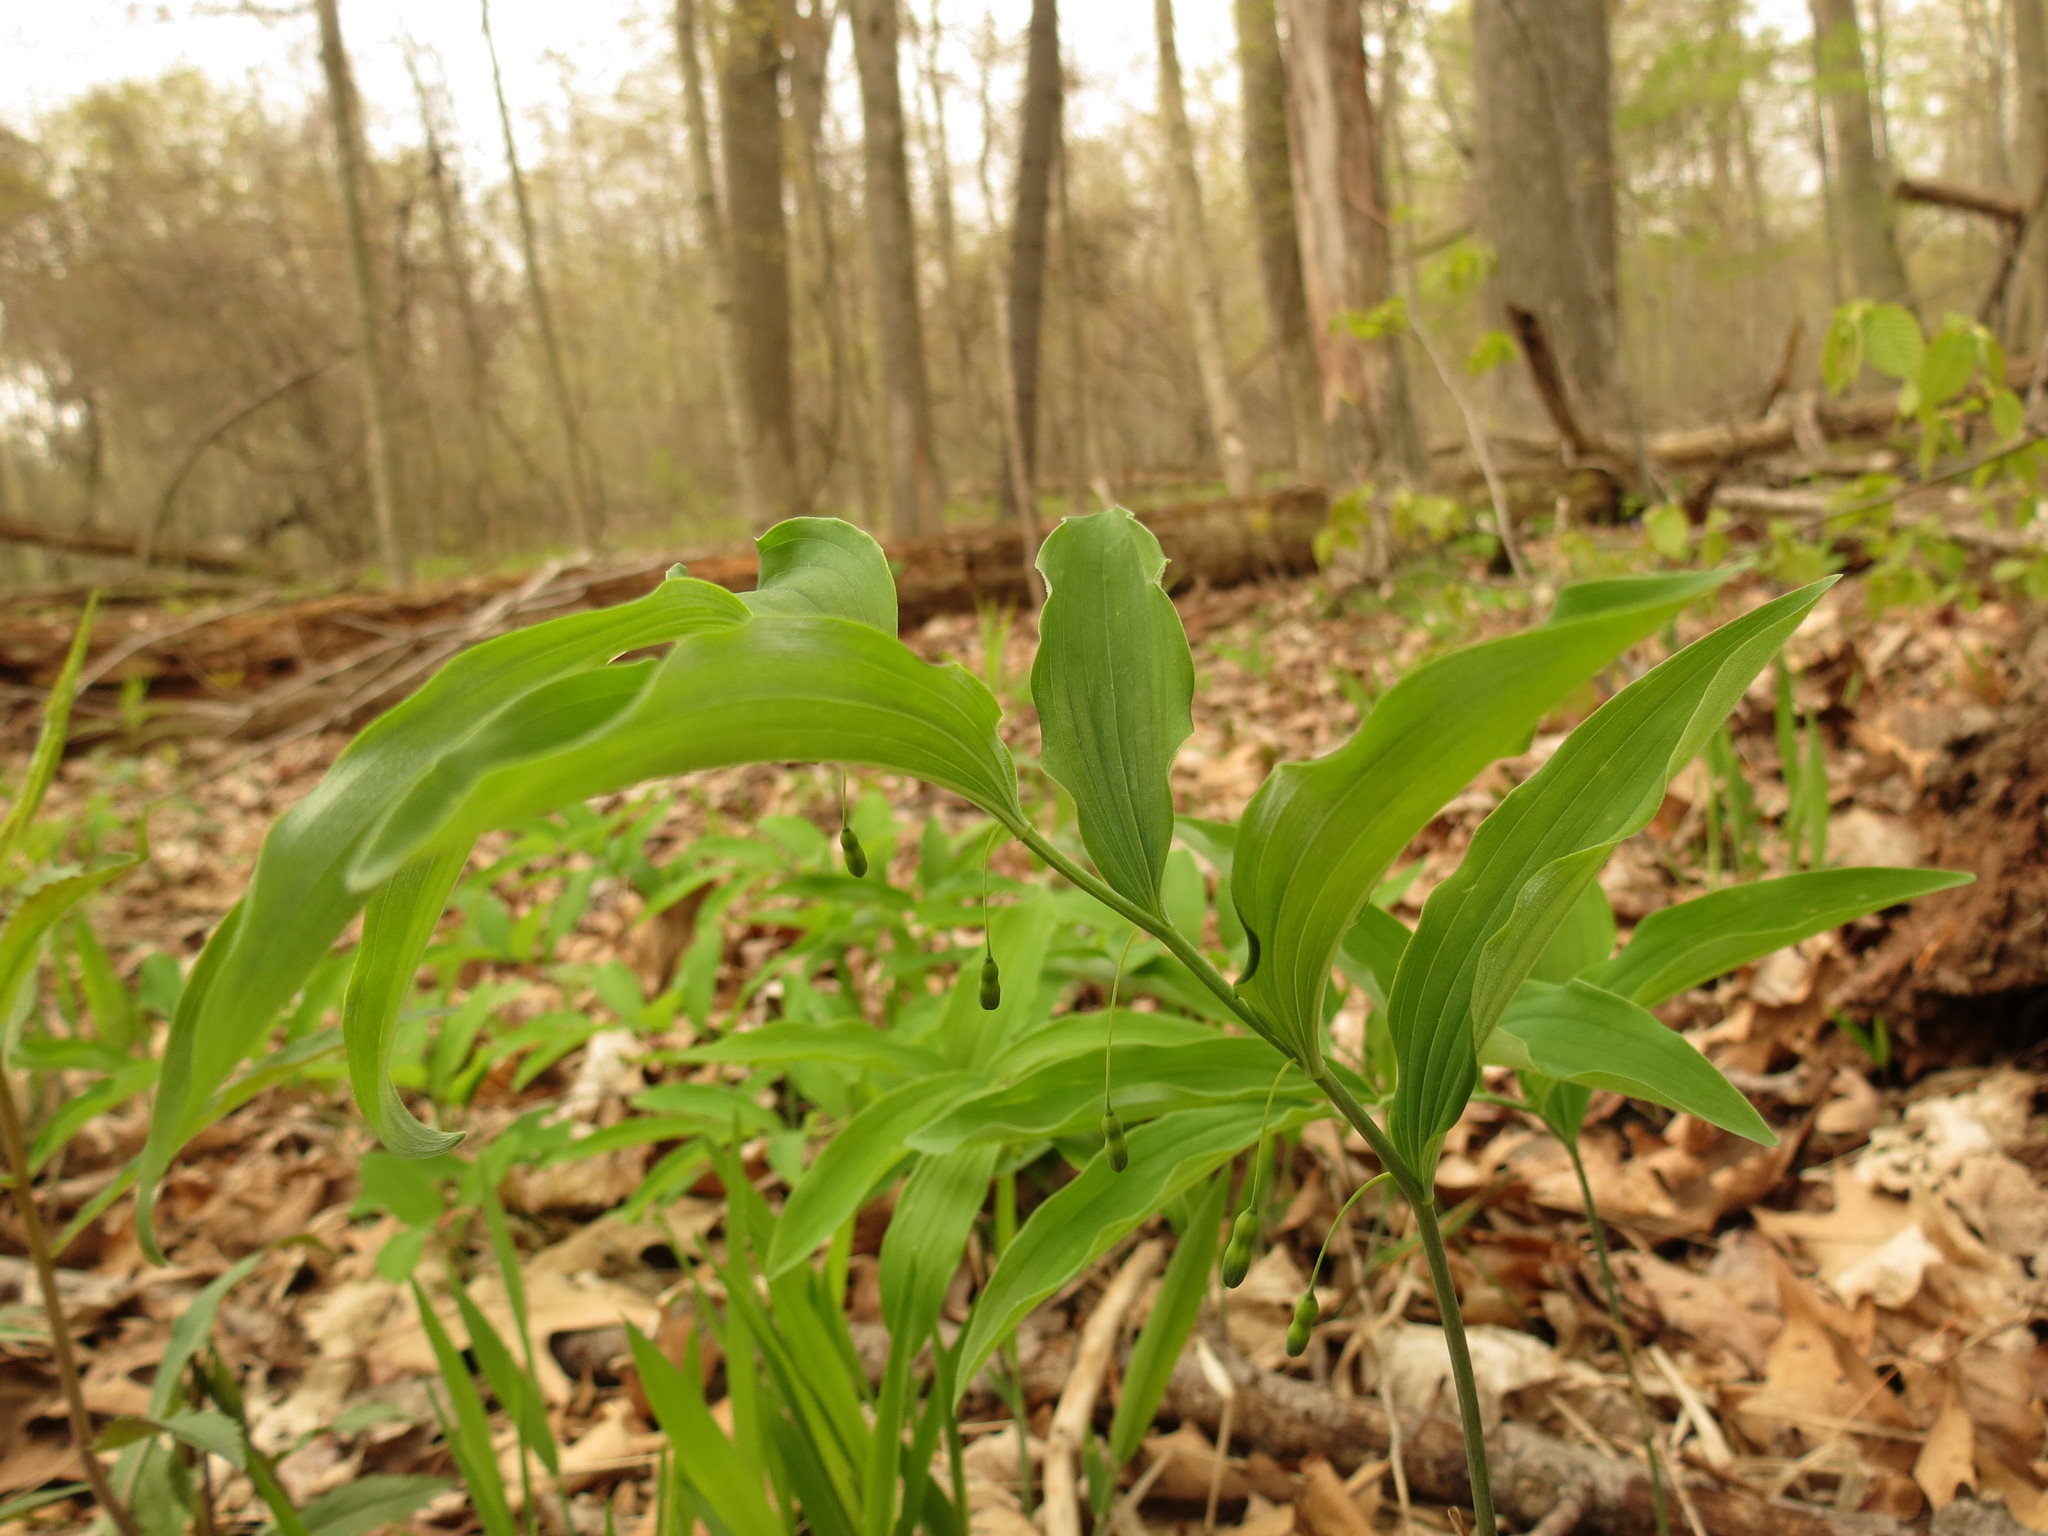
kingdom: Plantae
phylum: Tracheophyta
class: Liliopsida
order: Asparagales
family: Asparagaceae
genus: Polygonatum
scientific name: Polygonatum pubescens
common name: Downy solomon's seal
